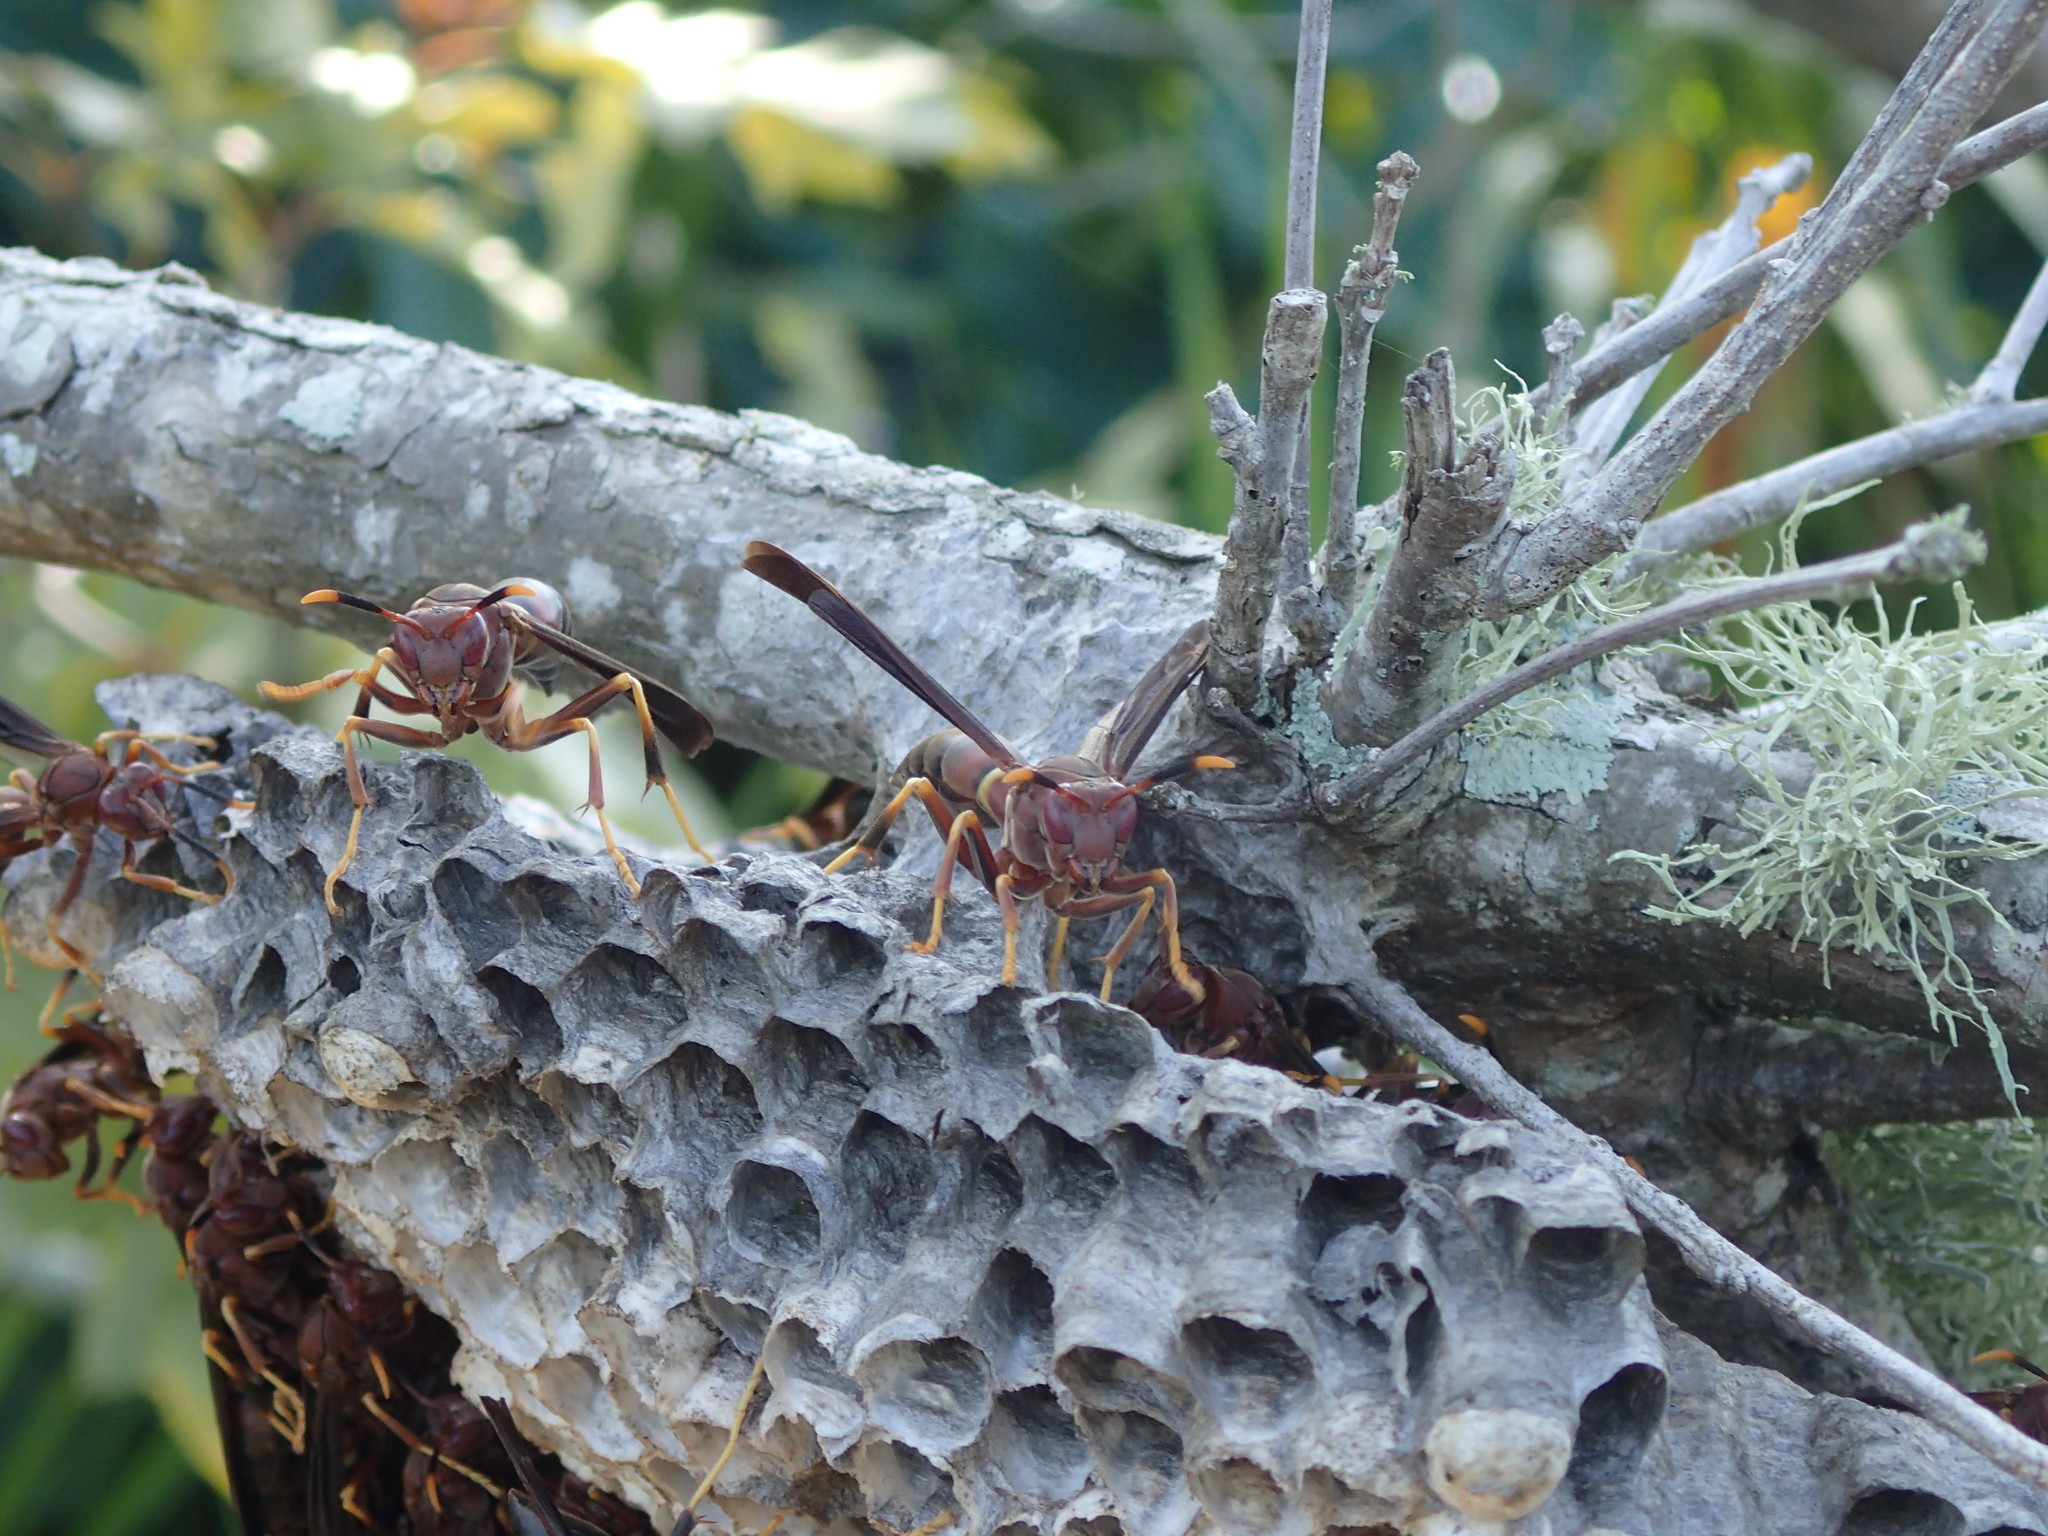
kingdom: Animalia
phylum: Arthropoda
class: Insecta
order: Hymenoptera
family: Eumenidae
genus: Polistes
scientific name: Polistes annularis
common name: Ringed paper wasp
